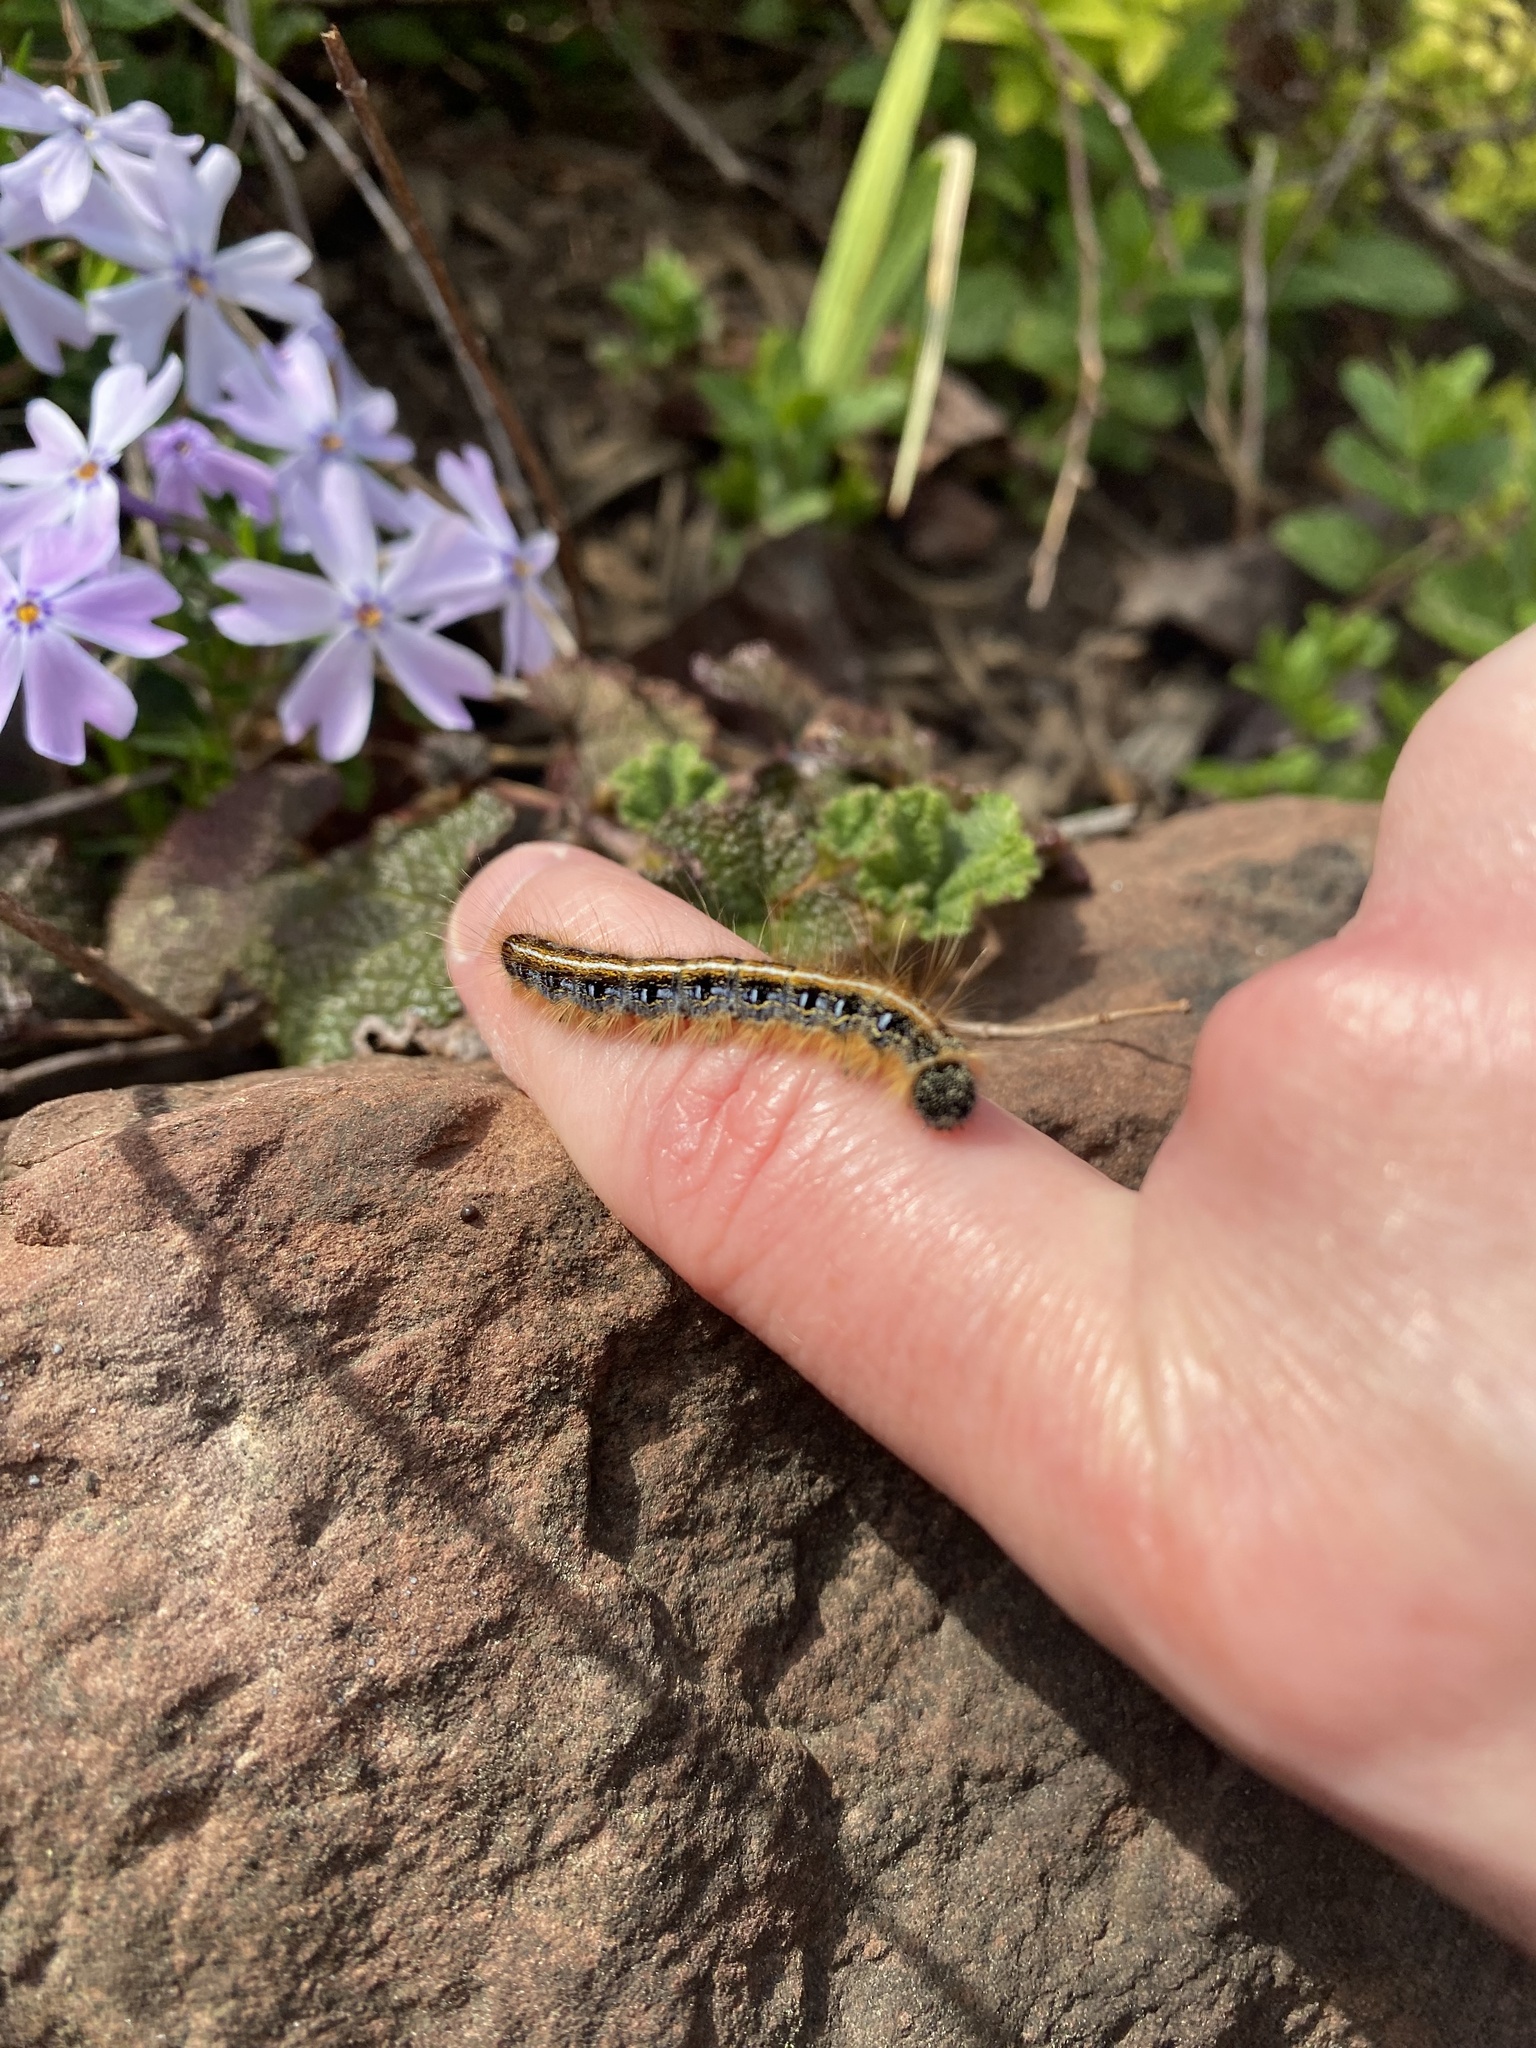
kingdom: Animalia
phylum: Arthropoda
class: Insecta
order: Lepidoptera
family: Lasiocampidae
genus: Malacosoma
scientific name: Malacosoma americana
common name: Eastern tent caterpillar moth
